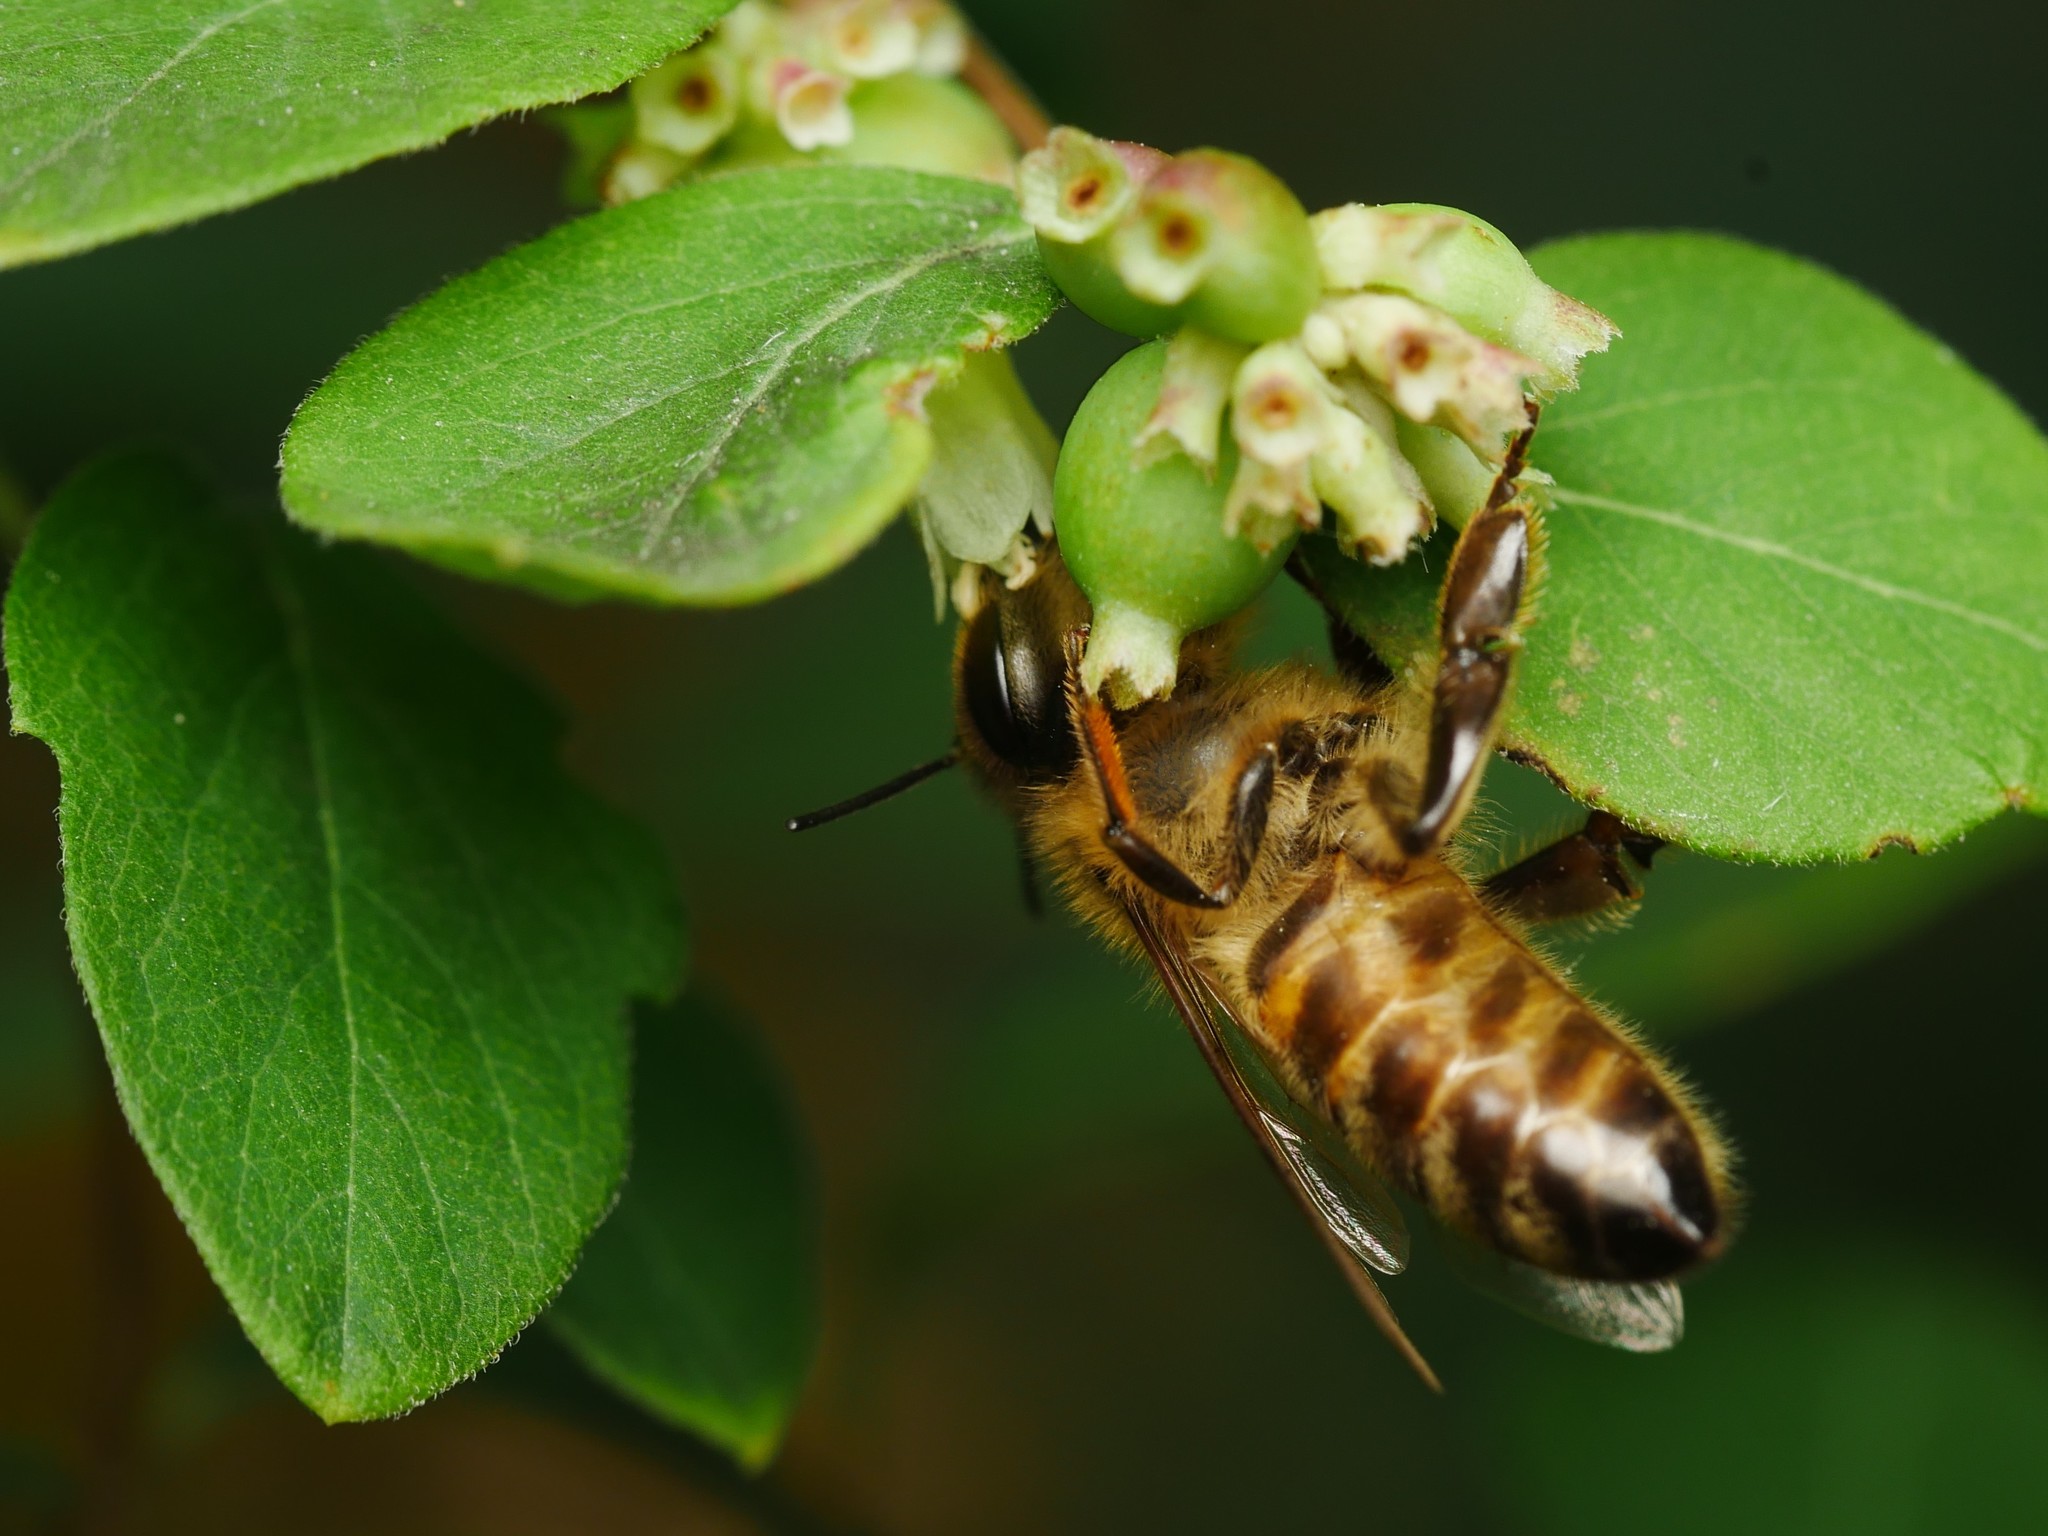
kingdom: Animalia
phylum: Arthropoda
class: Insecta
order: Hymenoptera
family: Apidae
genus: Apis
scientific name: Apis mellifera
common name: Honey bee
